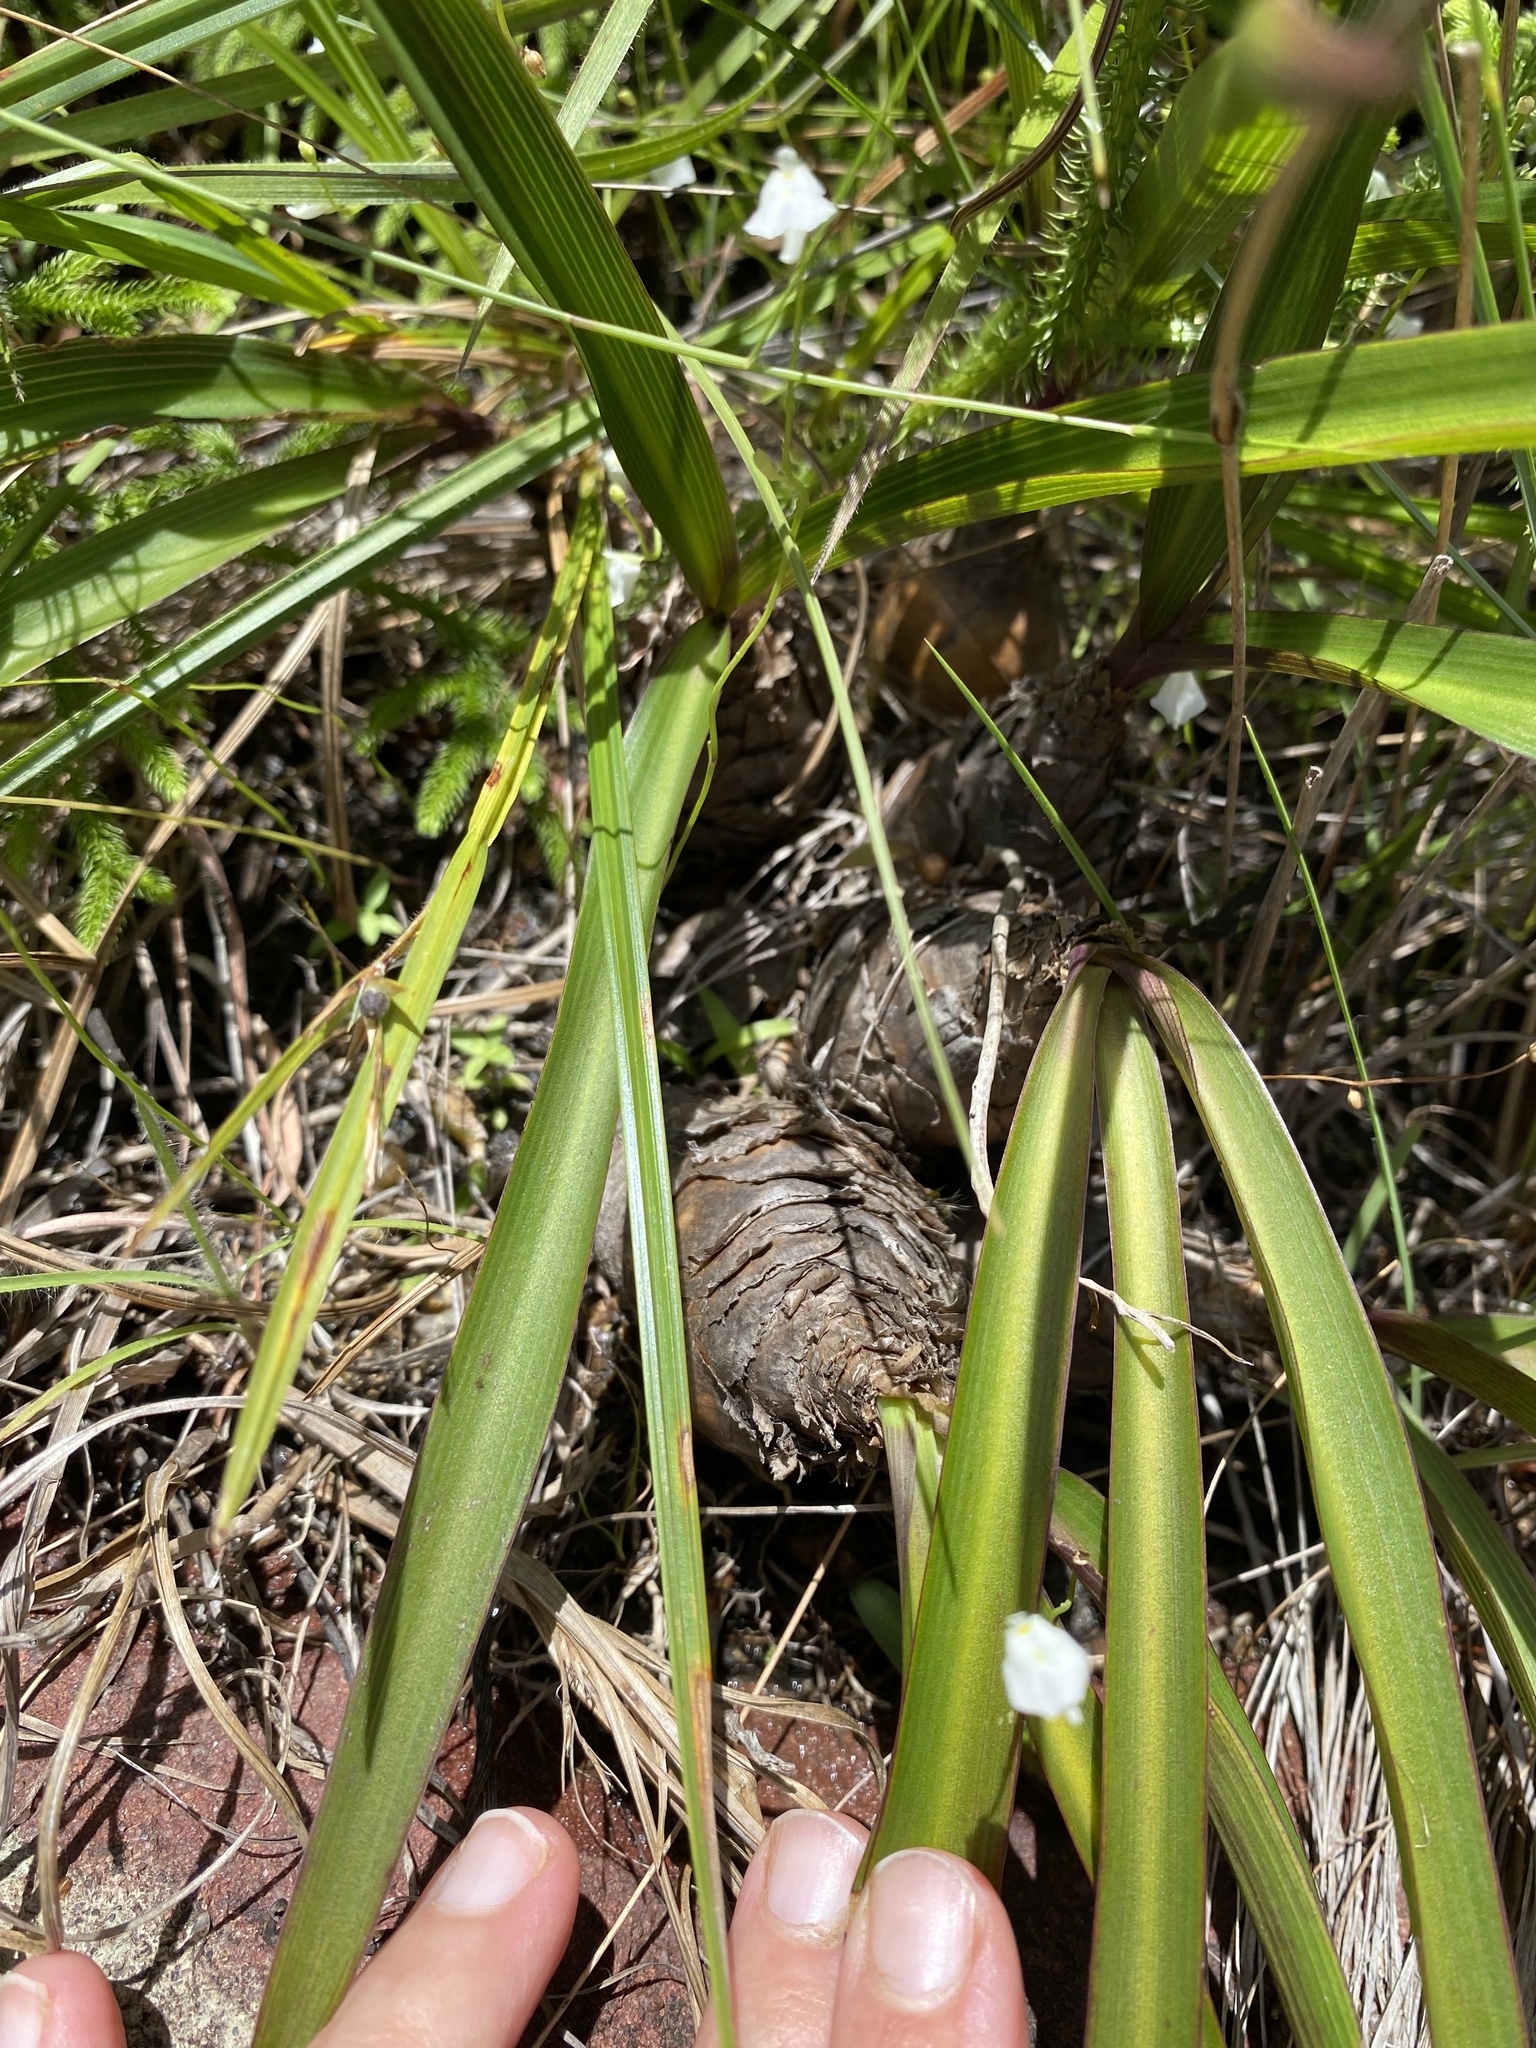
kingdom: Plantae
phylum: Tracheophyta
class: Liliopsida
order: Asparagales
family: Asparagaceae
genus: Merwilla
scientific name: Merwilla plumbea
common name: Blue-squill
